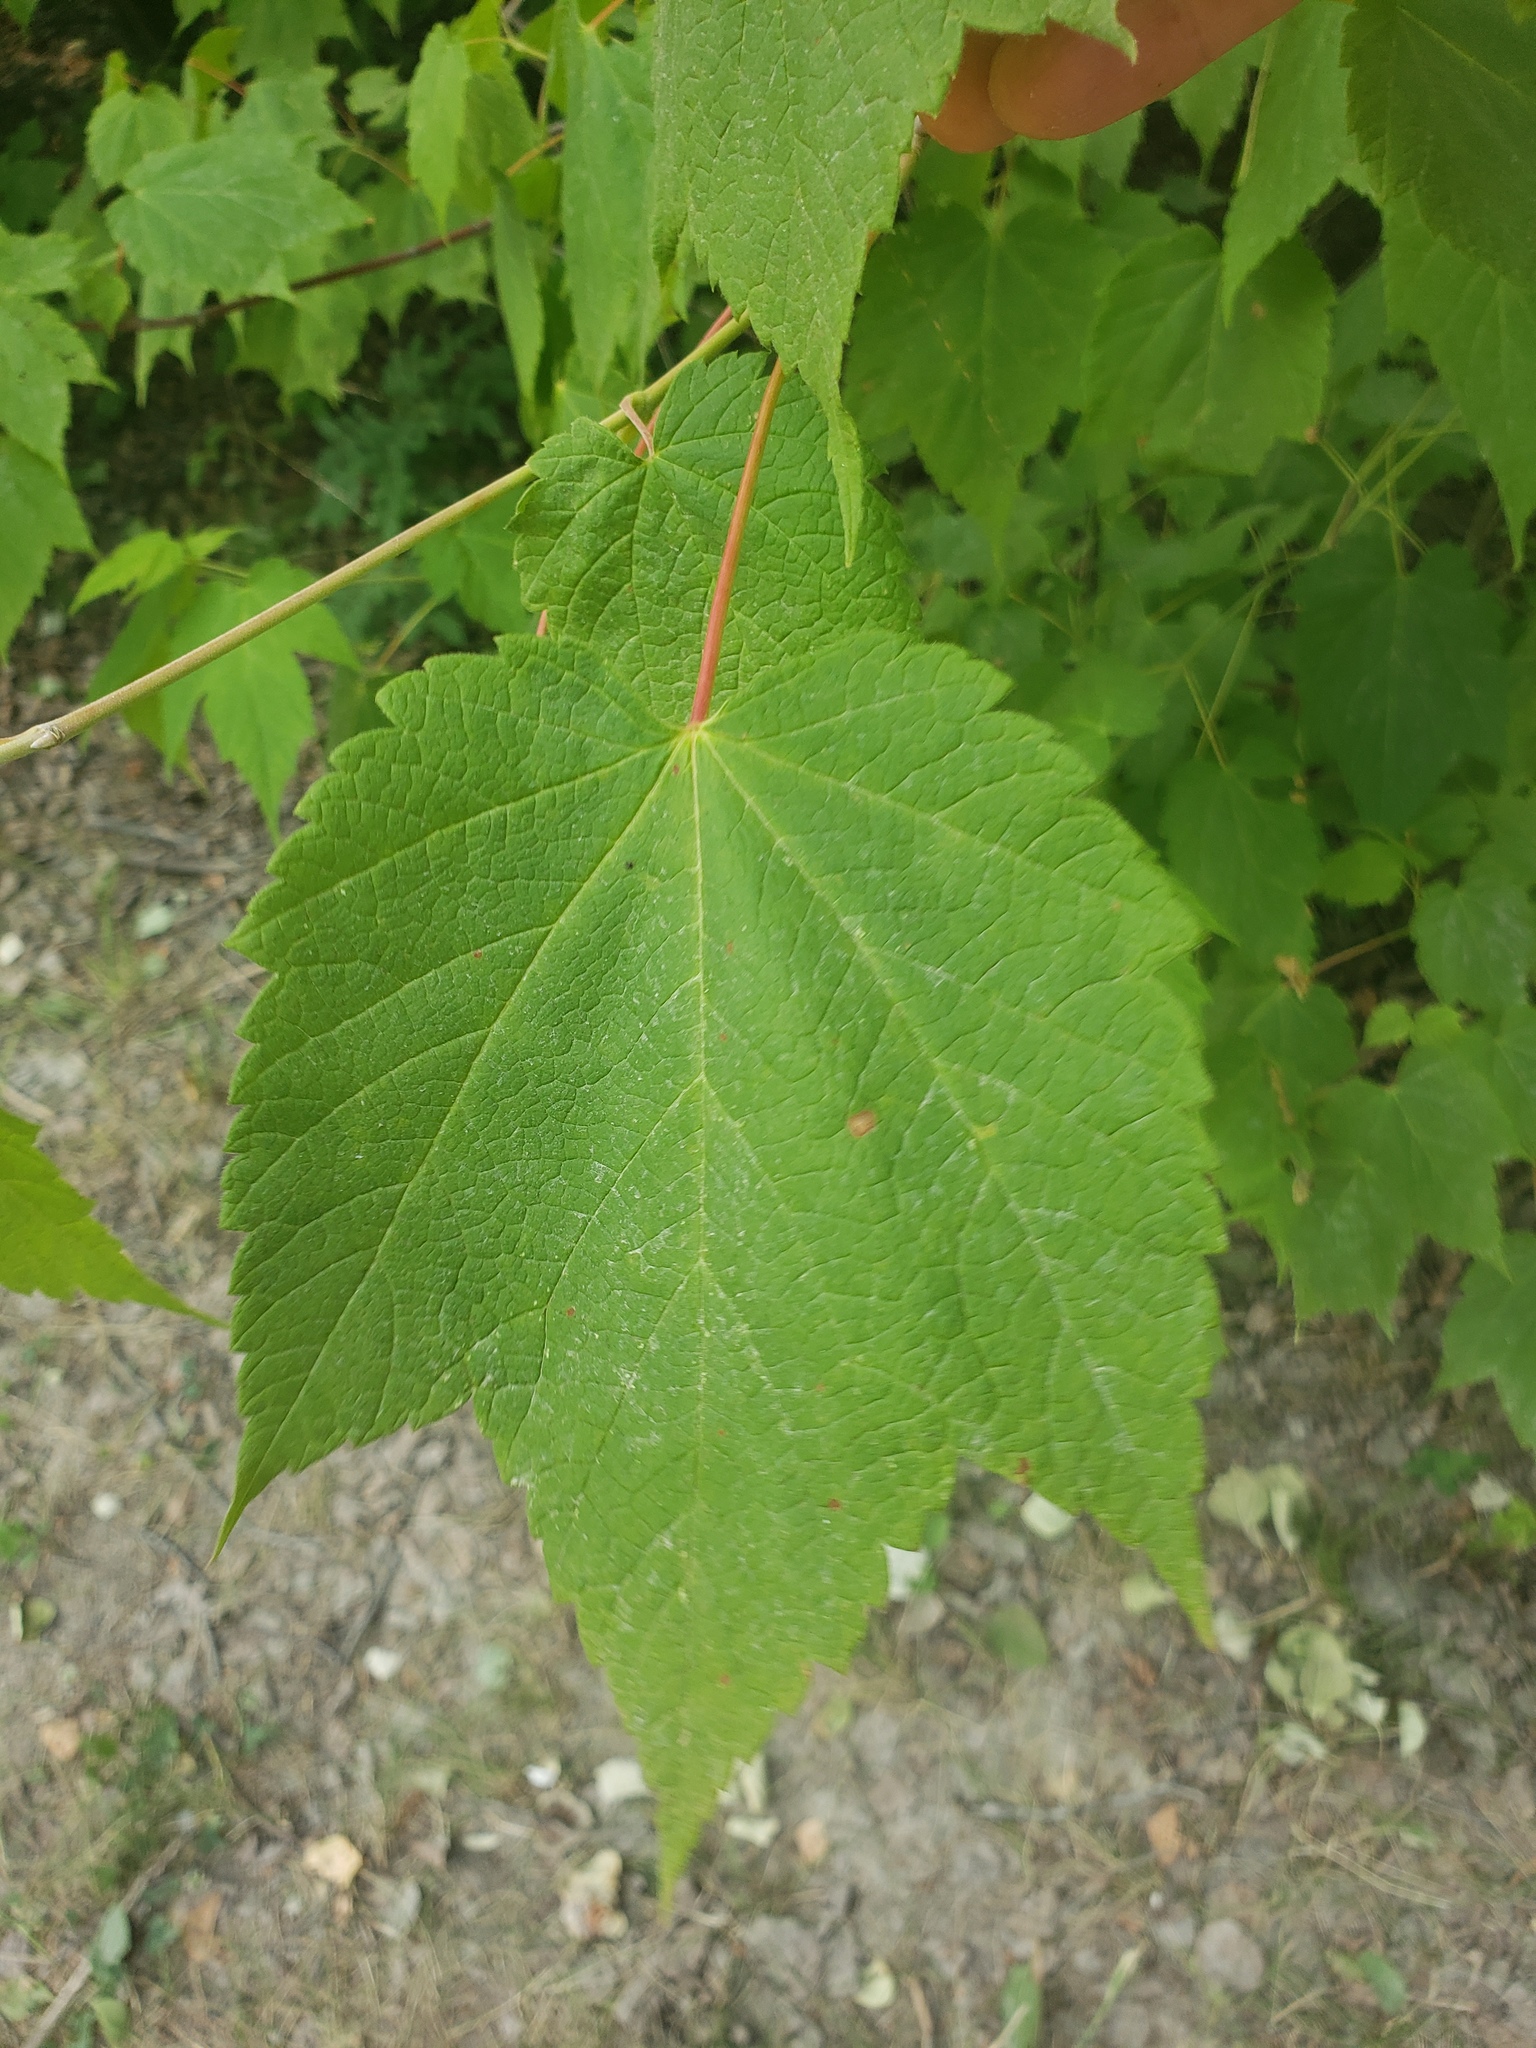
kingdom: Plantae
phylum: Tracheophyta
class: Magnoliopsida
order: Sapindales
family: Sapindaceae
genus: Acer
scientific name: Acer spicatum
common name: Mountain maple
